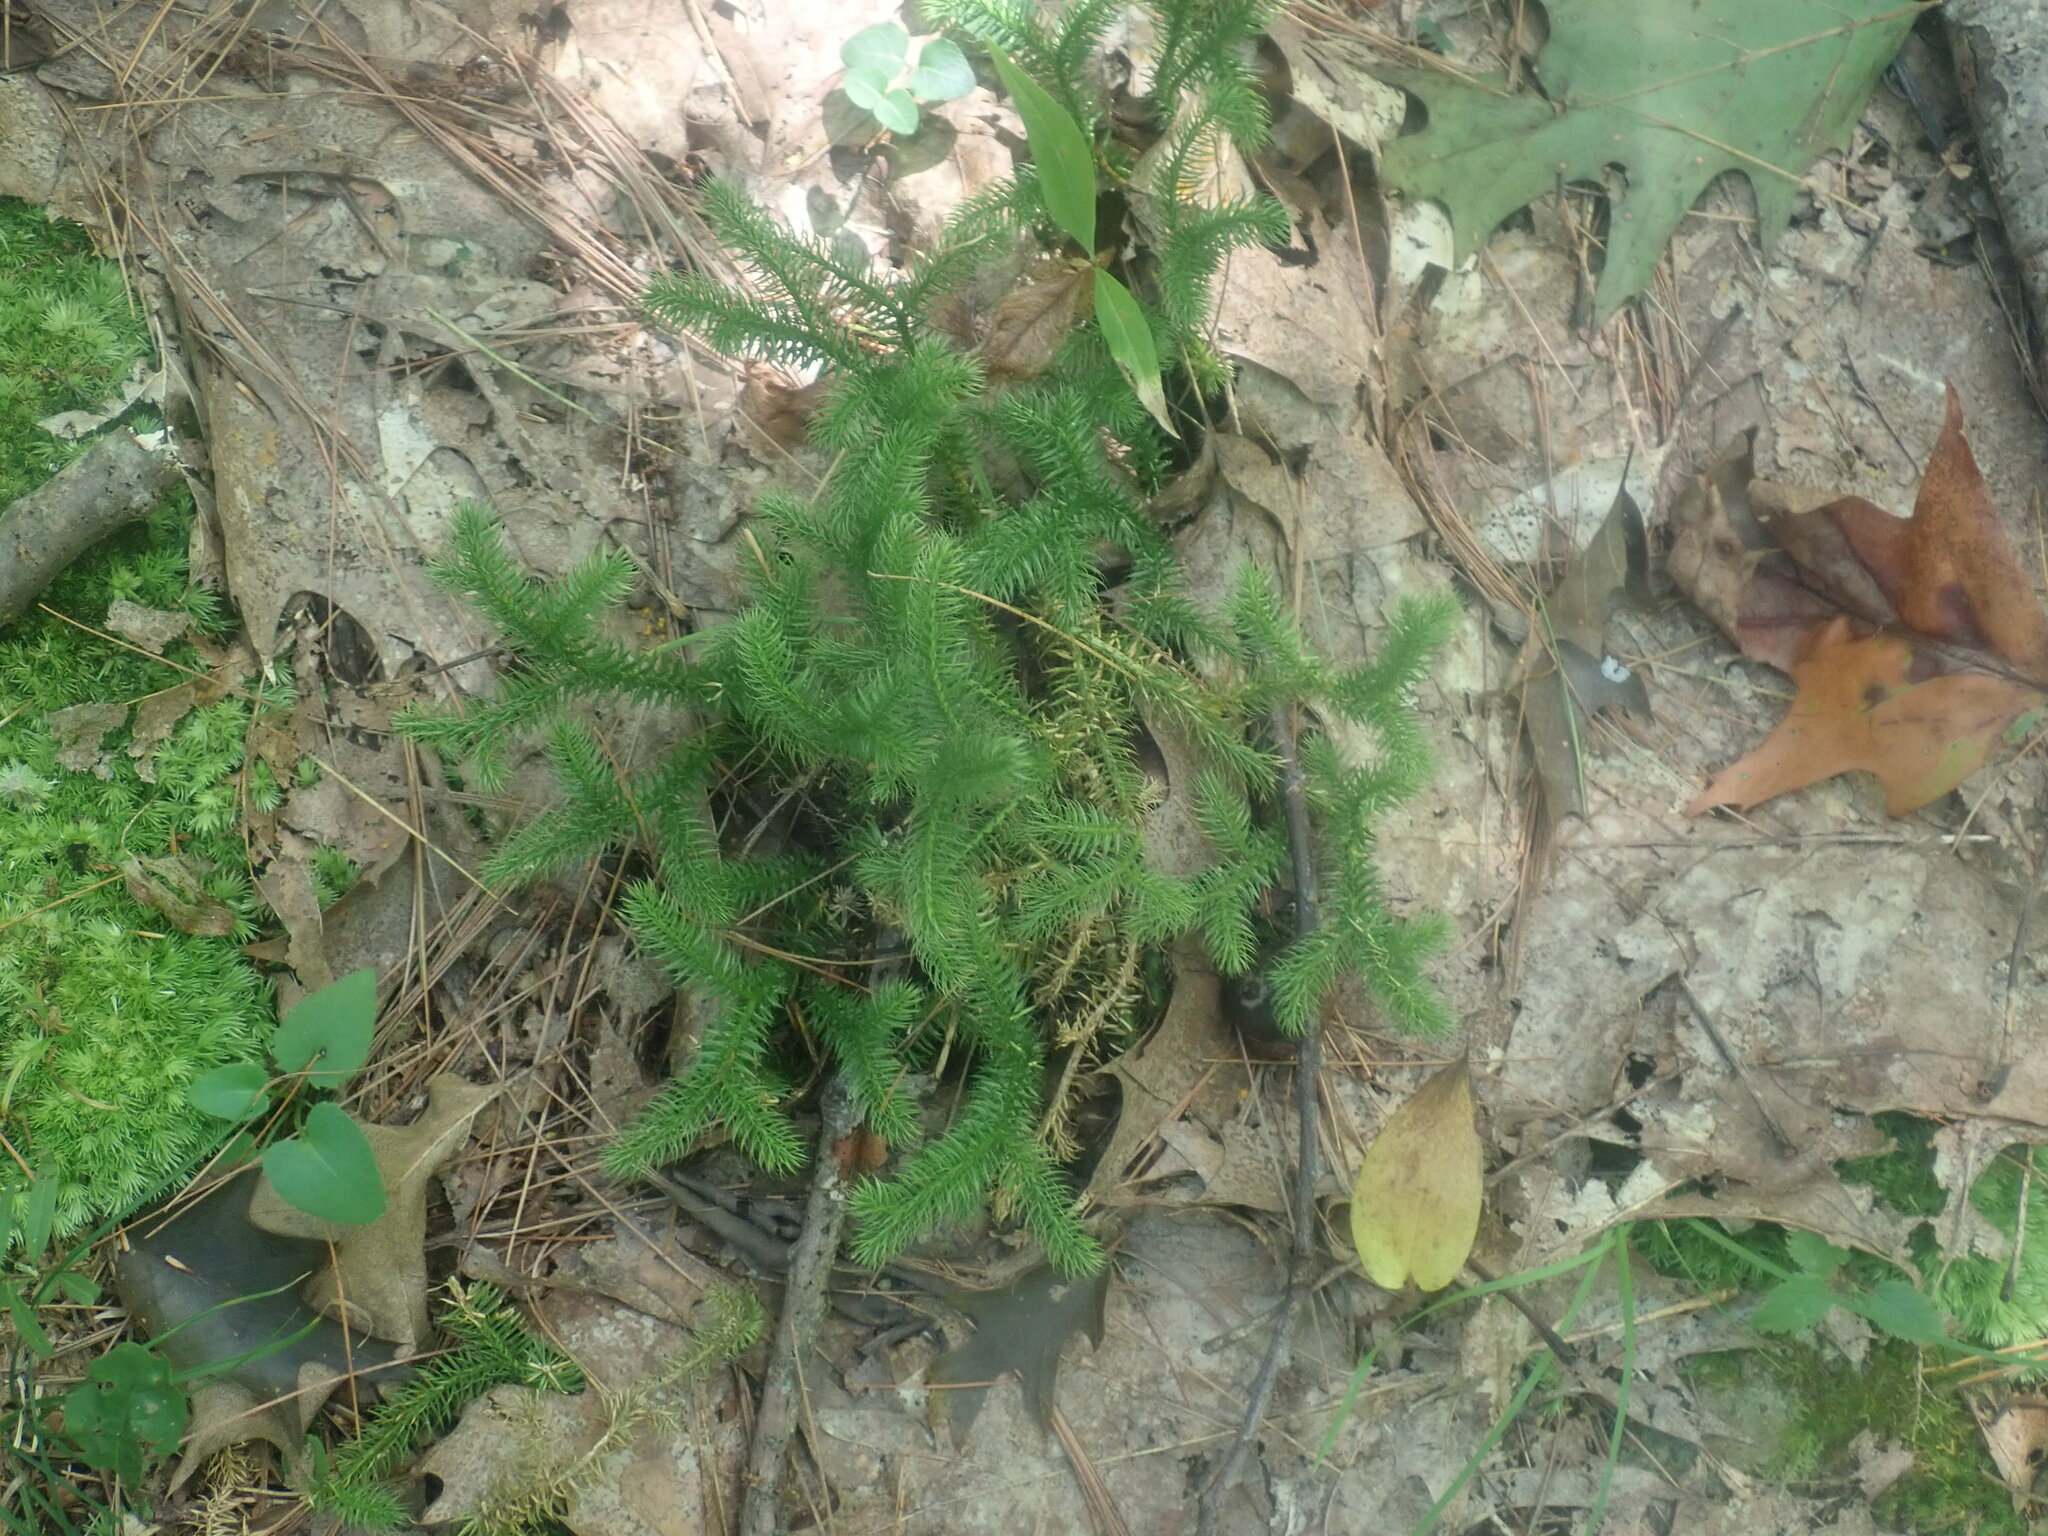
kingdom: Plantae
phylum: Tracheophyta
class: Lycopodiopsida
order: Lycopodiales
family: Lycopodiaceae
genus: Lycopodium
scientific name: Lycopodium clavatum
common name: Stag's-horn clubmoss
